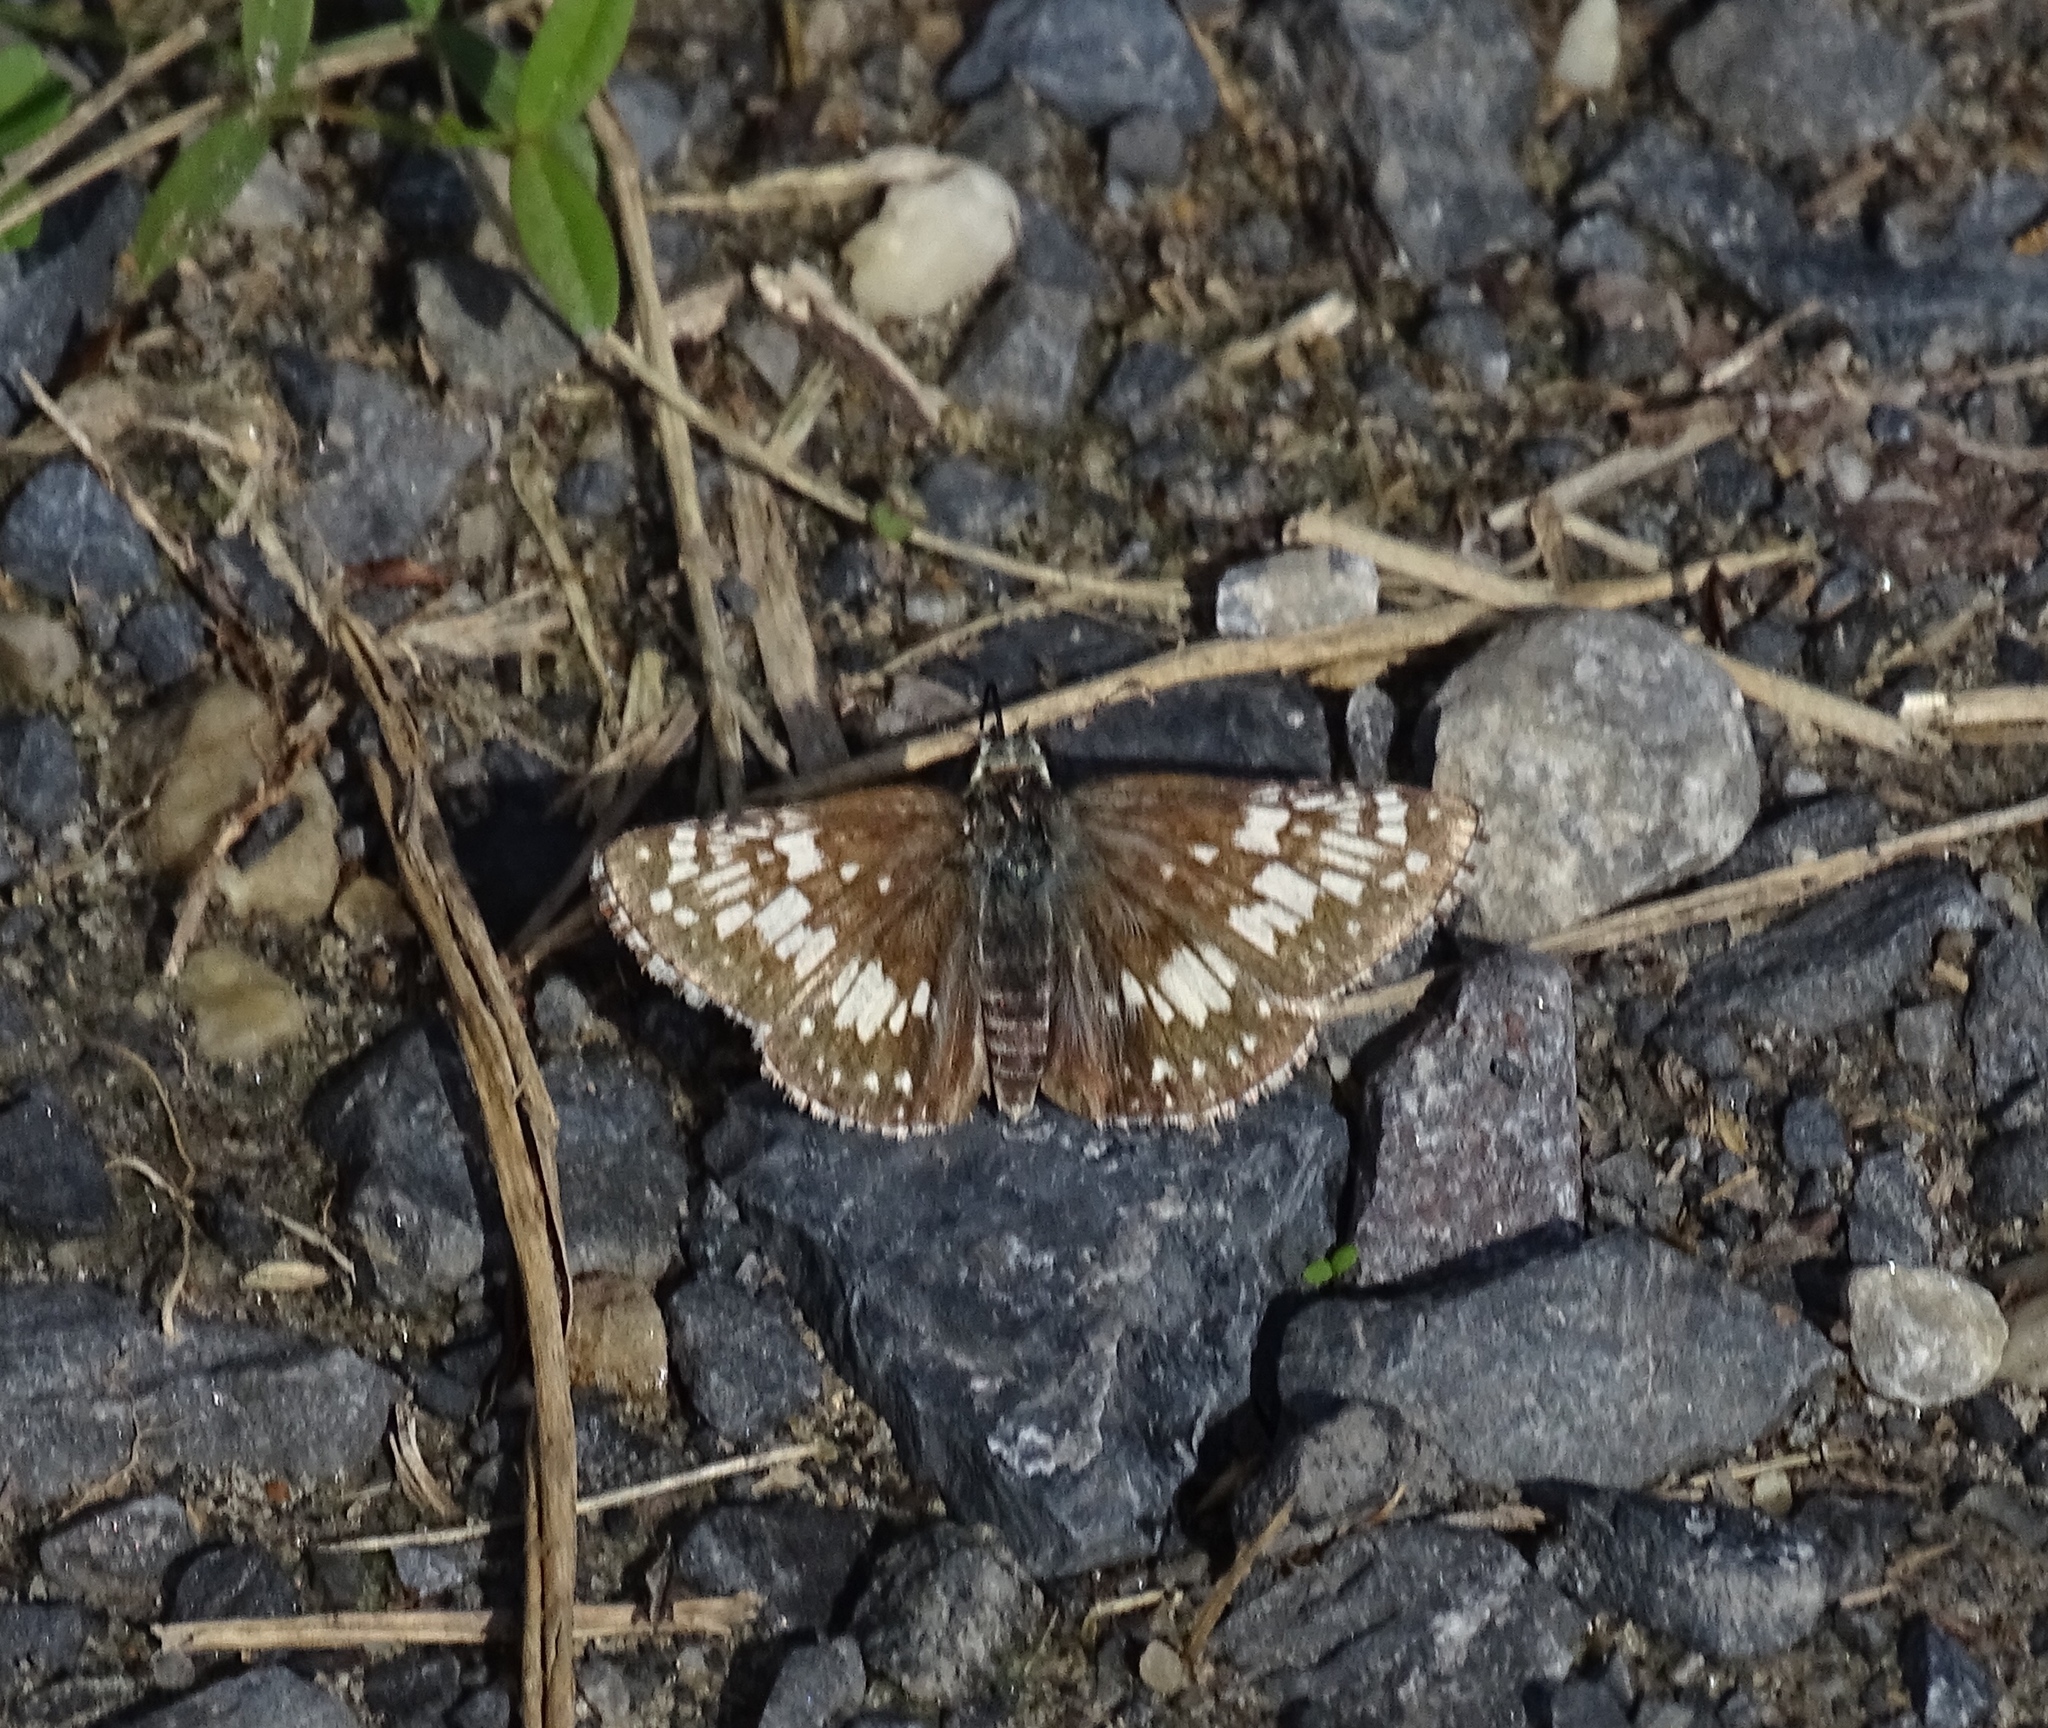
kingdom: Animalia
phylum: Arthropoda
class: Insecta
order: Lepidoptera
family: Hesperiidae
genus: Burnsius
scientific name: Burnsius communis
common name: Common checkered-skipper
